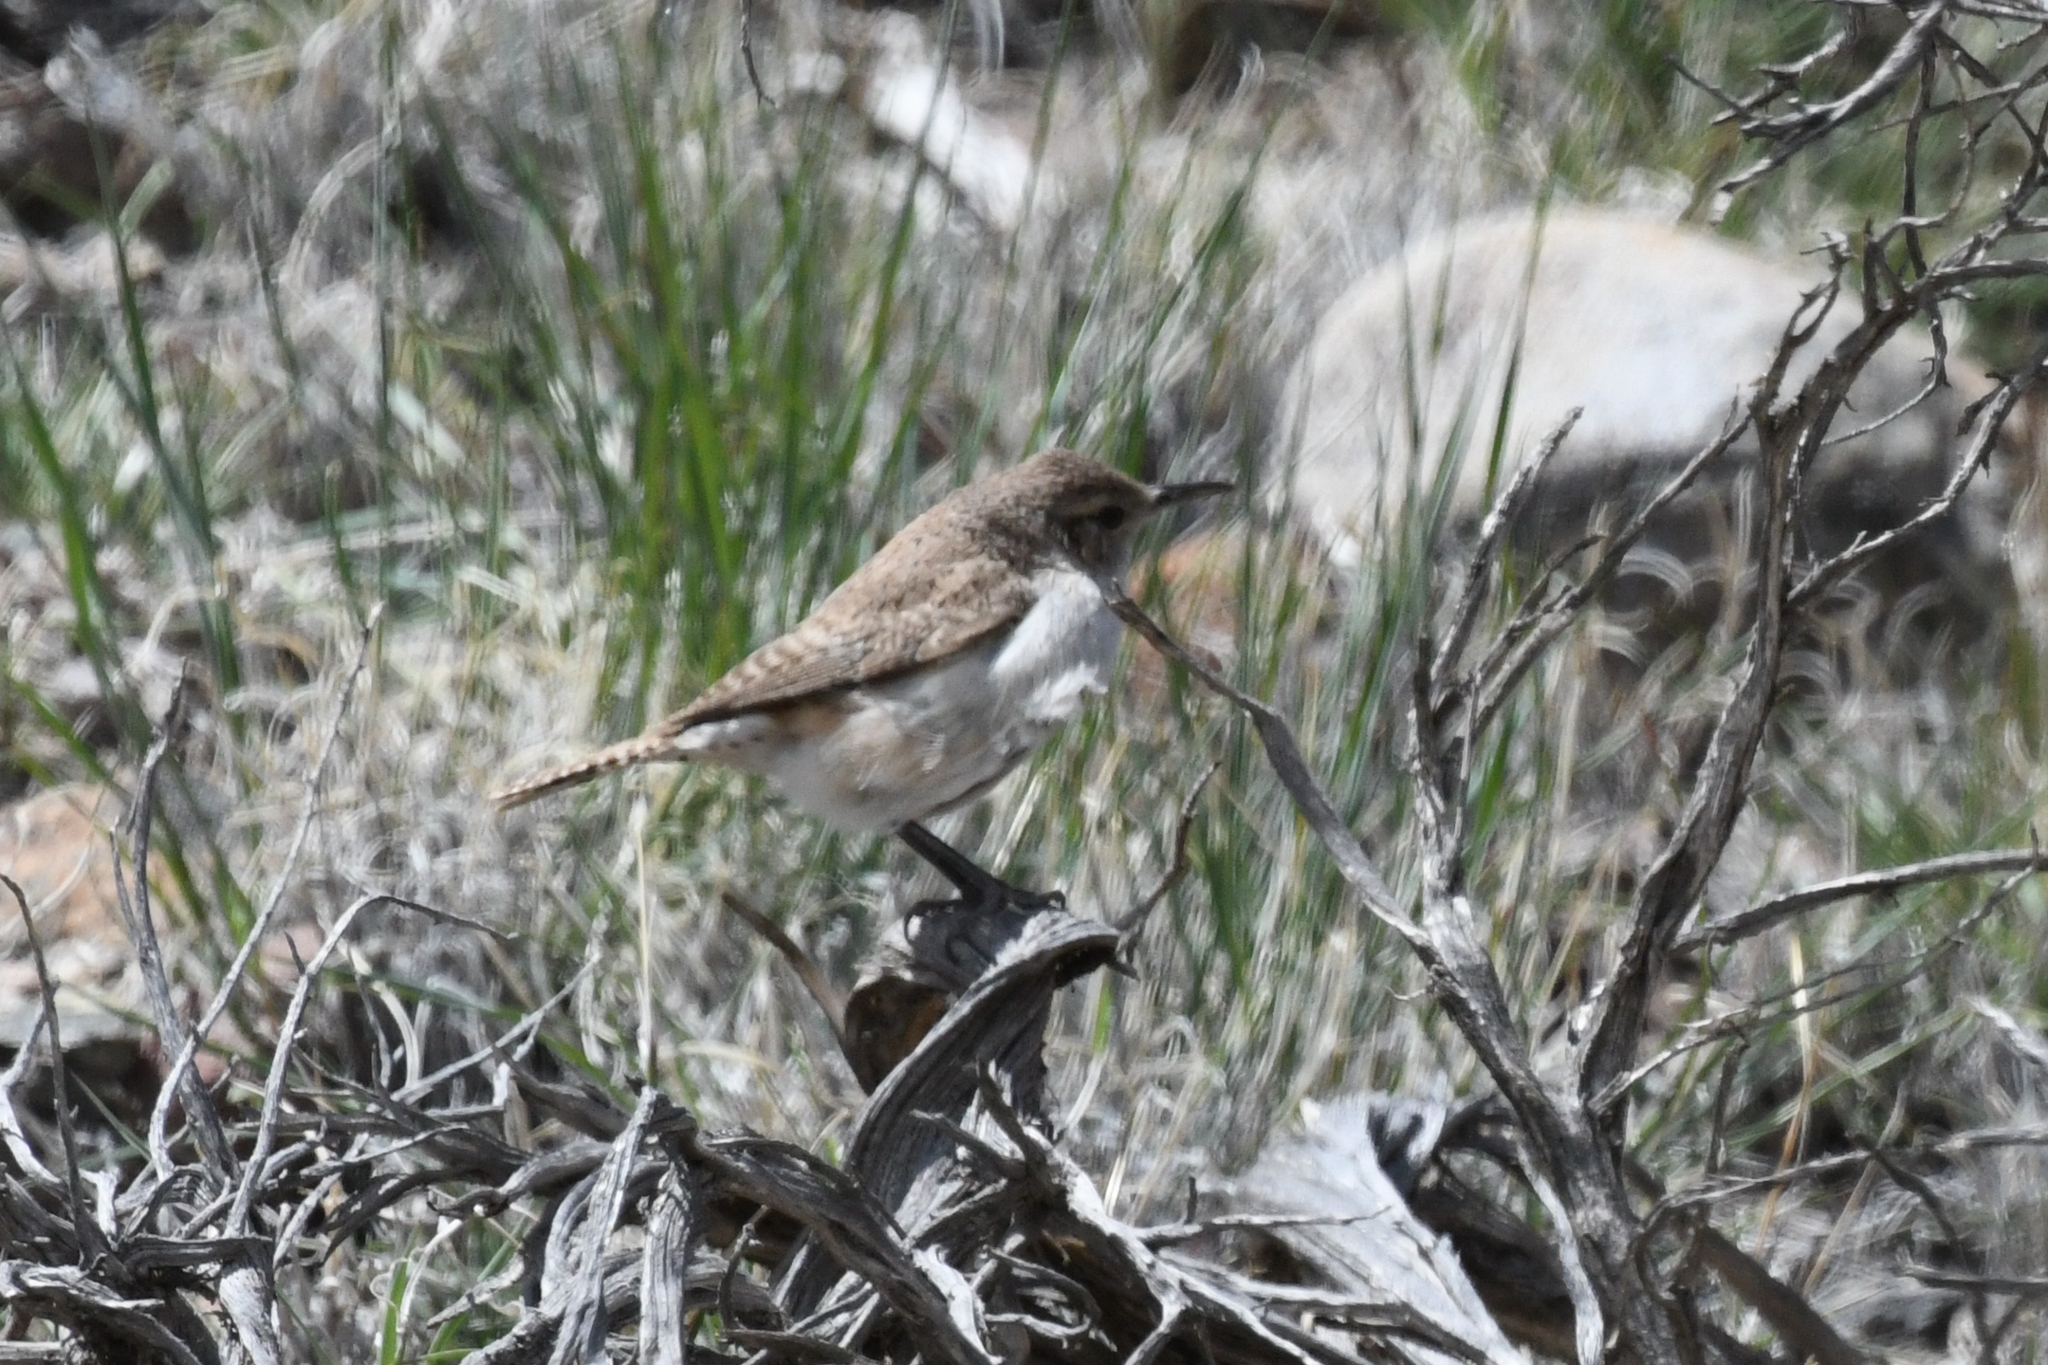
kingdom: Animalia
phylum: Chordata
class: Aves
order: Passeriformes
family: Troglodytidae
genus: Salpinctes
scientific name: Salpinctes obsoletus
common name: Rock wren
